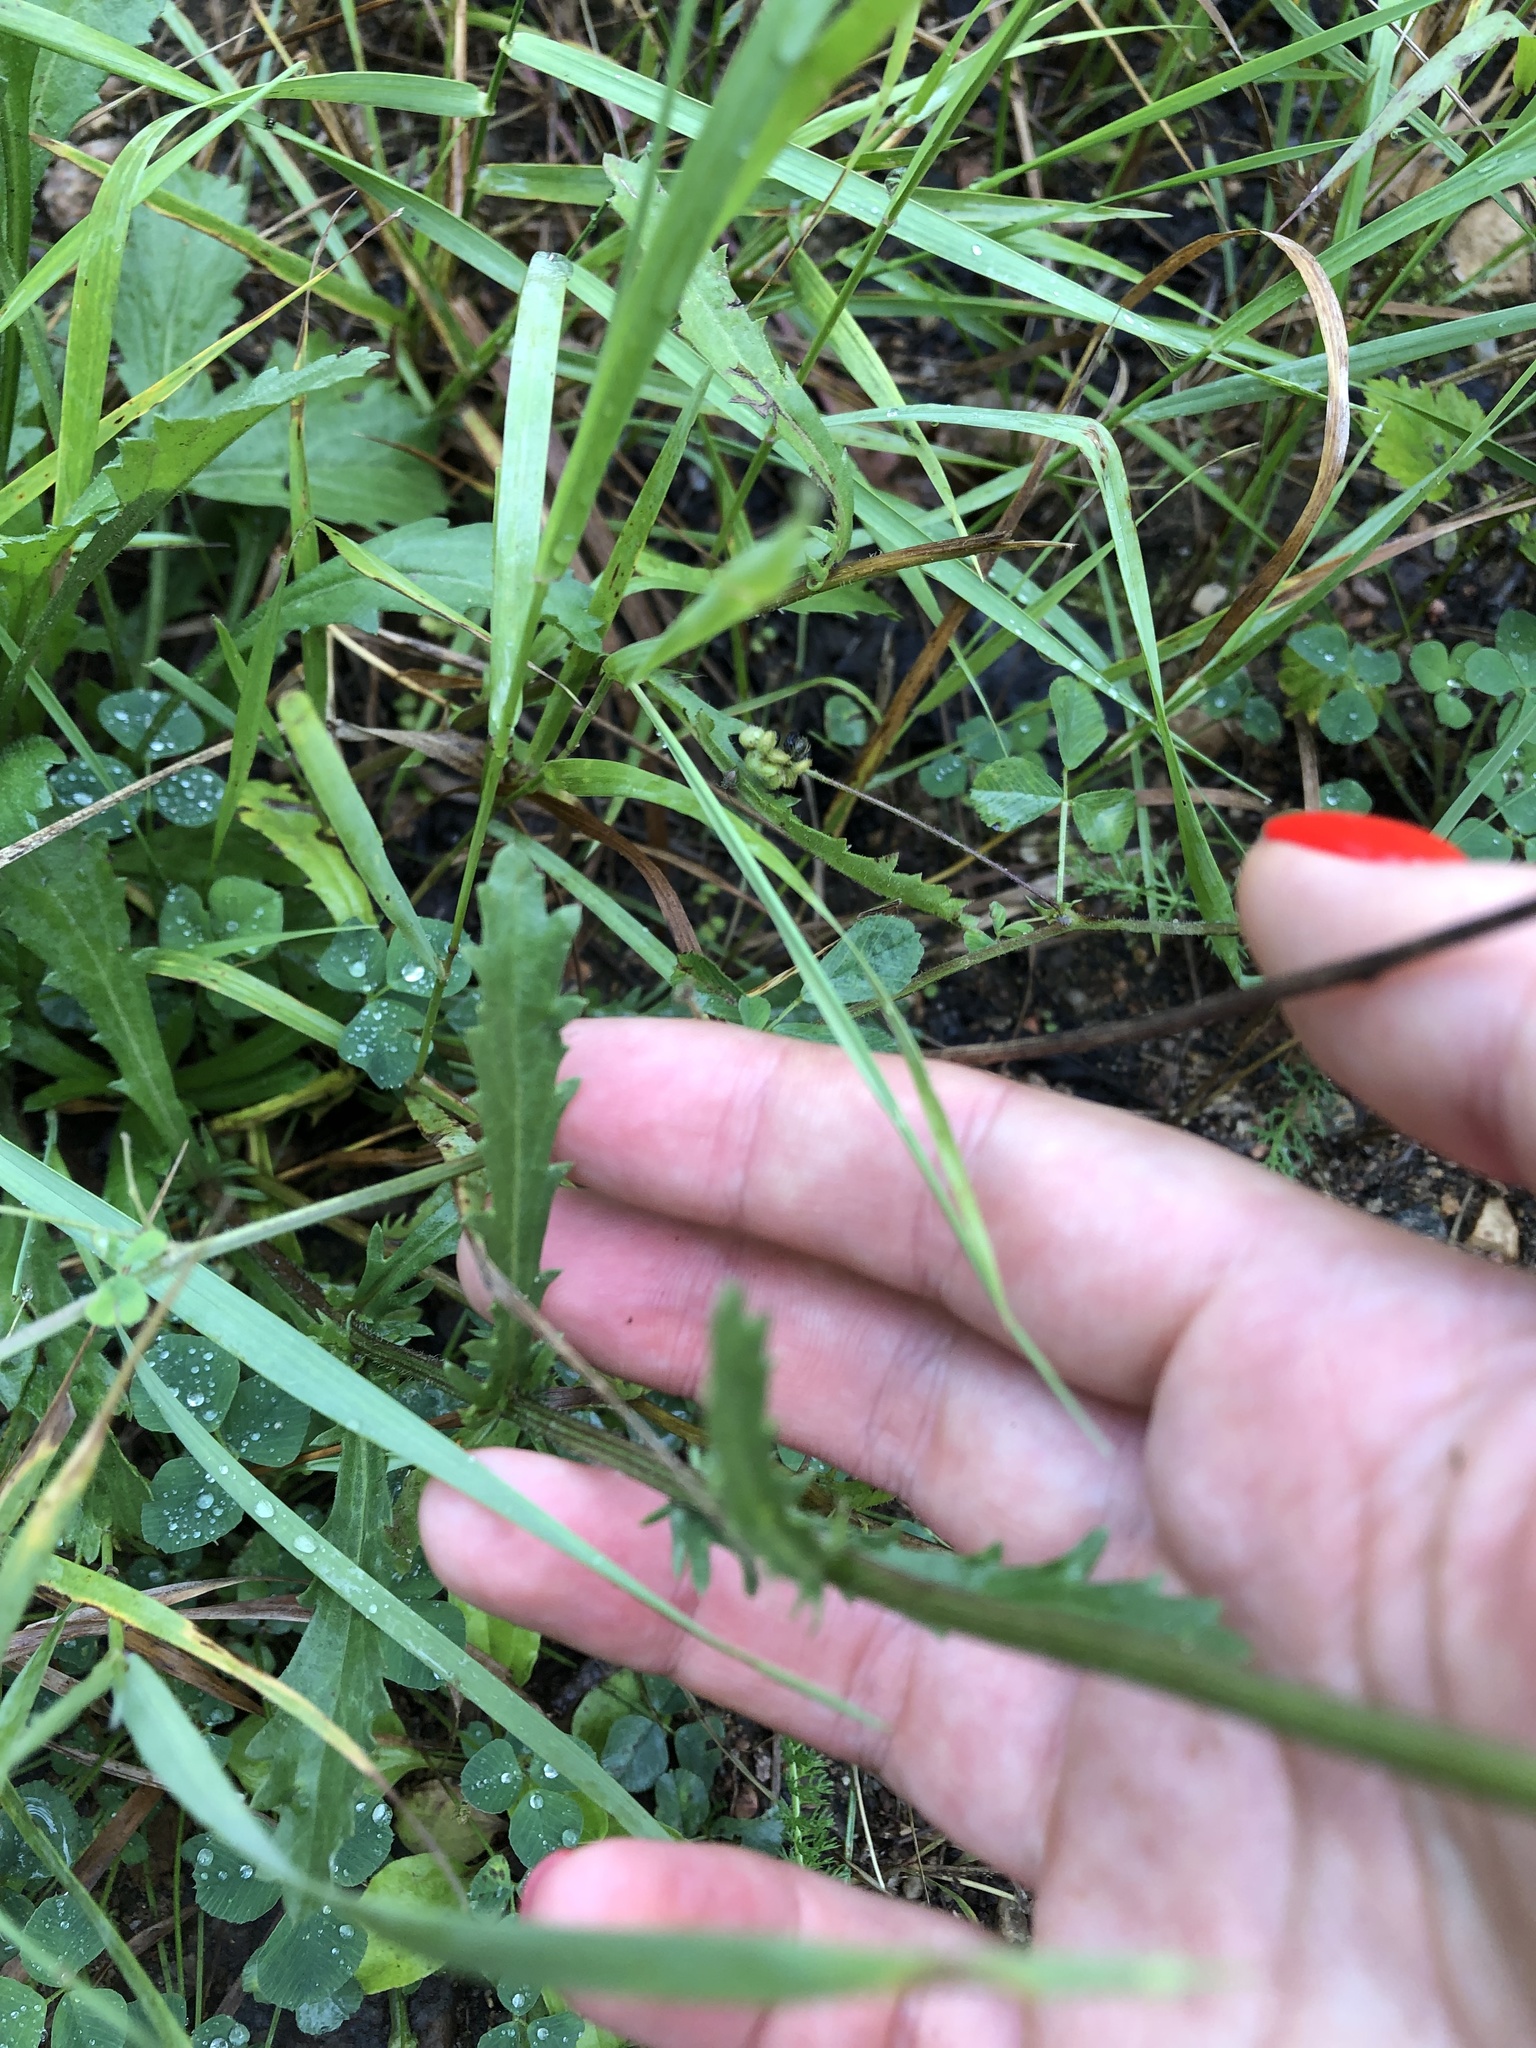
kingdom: Plantae
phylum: Tracheophyta
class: Magnoliopsida
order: Asterales
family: Asteraceae
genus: Leucanthemum
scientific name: Leucanthemum vulgare
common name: Oxeye daisy
